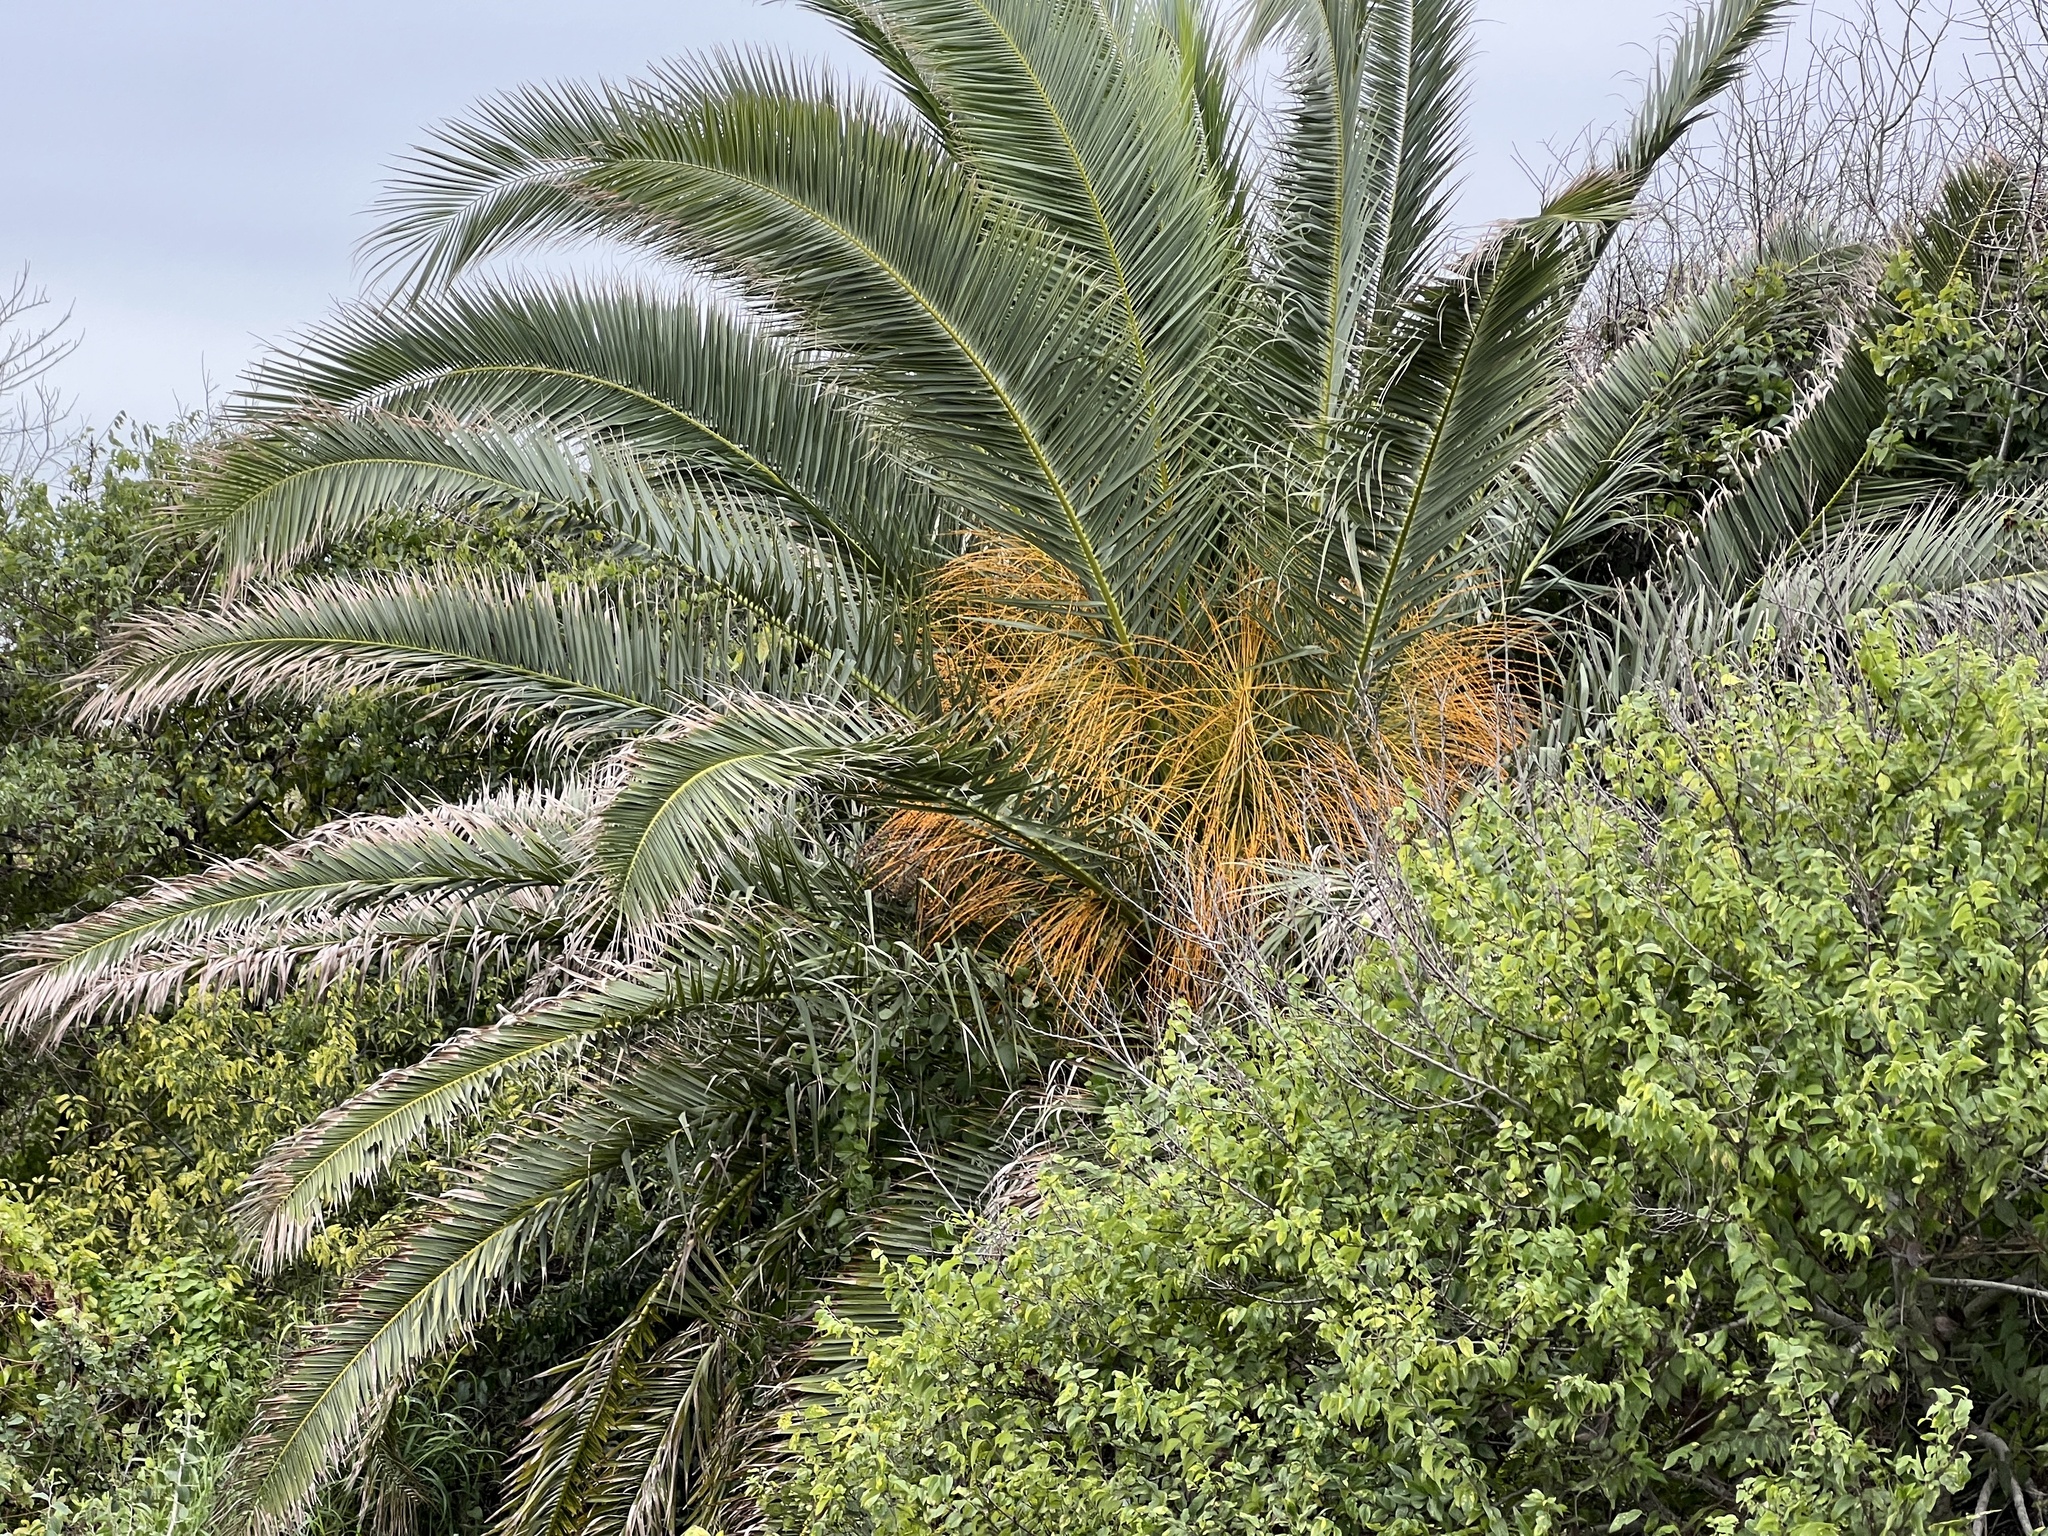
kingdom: Plantae
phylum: Tracheophyta
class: Liliopsida
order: Arecales
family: Arecaceae
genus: Phoenix
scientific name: Phoenix canariensis
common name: Canary island date palm
